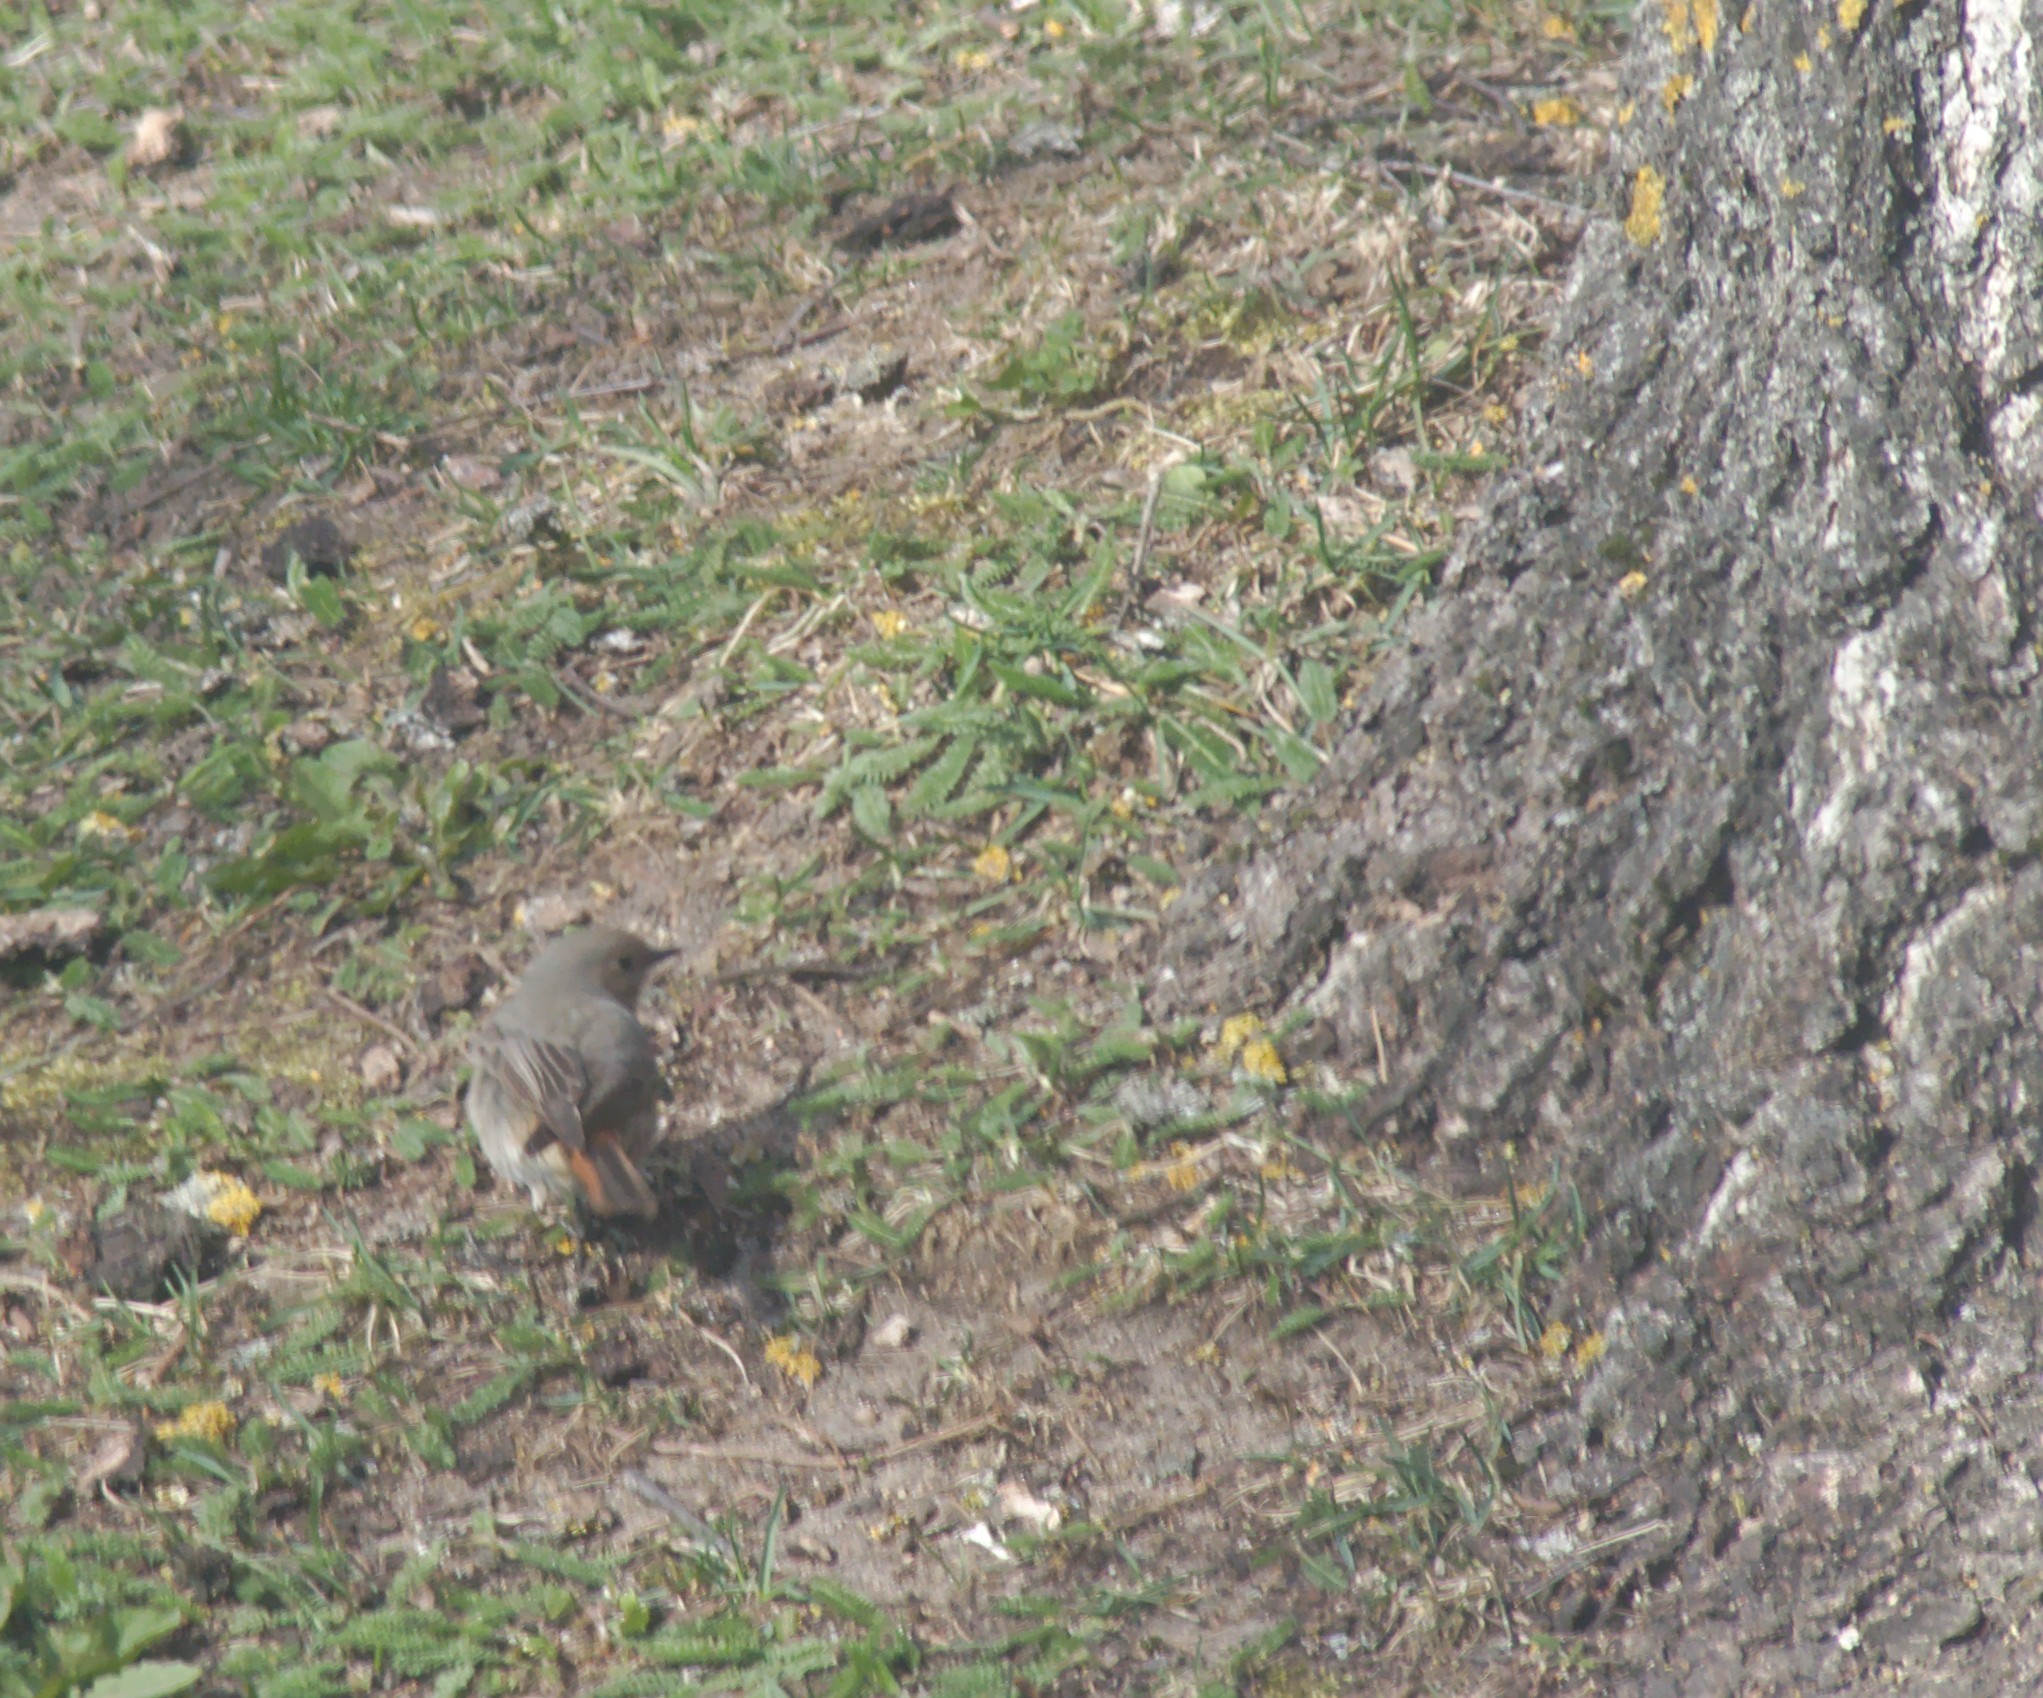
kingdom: Animalia
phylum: Chordata
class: Aves
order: Passeriformes
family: Muscicapidae
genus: Phoenicurus
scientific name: Phoenicurus ochruros
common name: Black redstart
